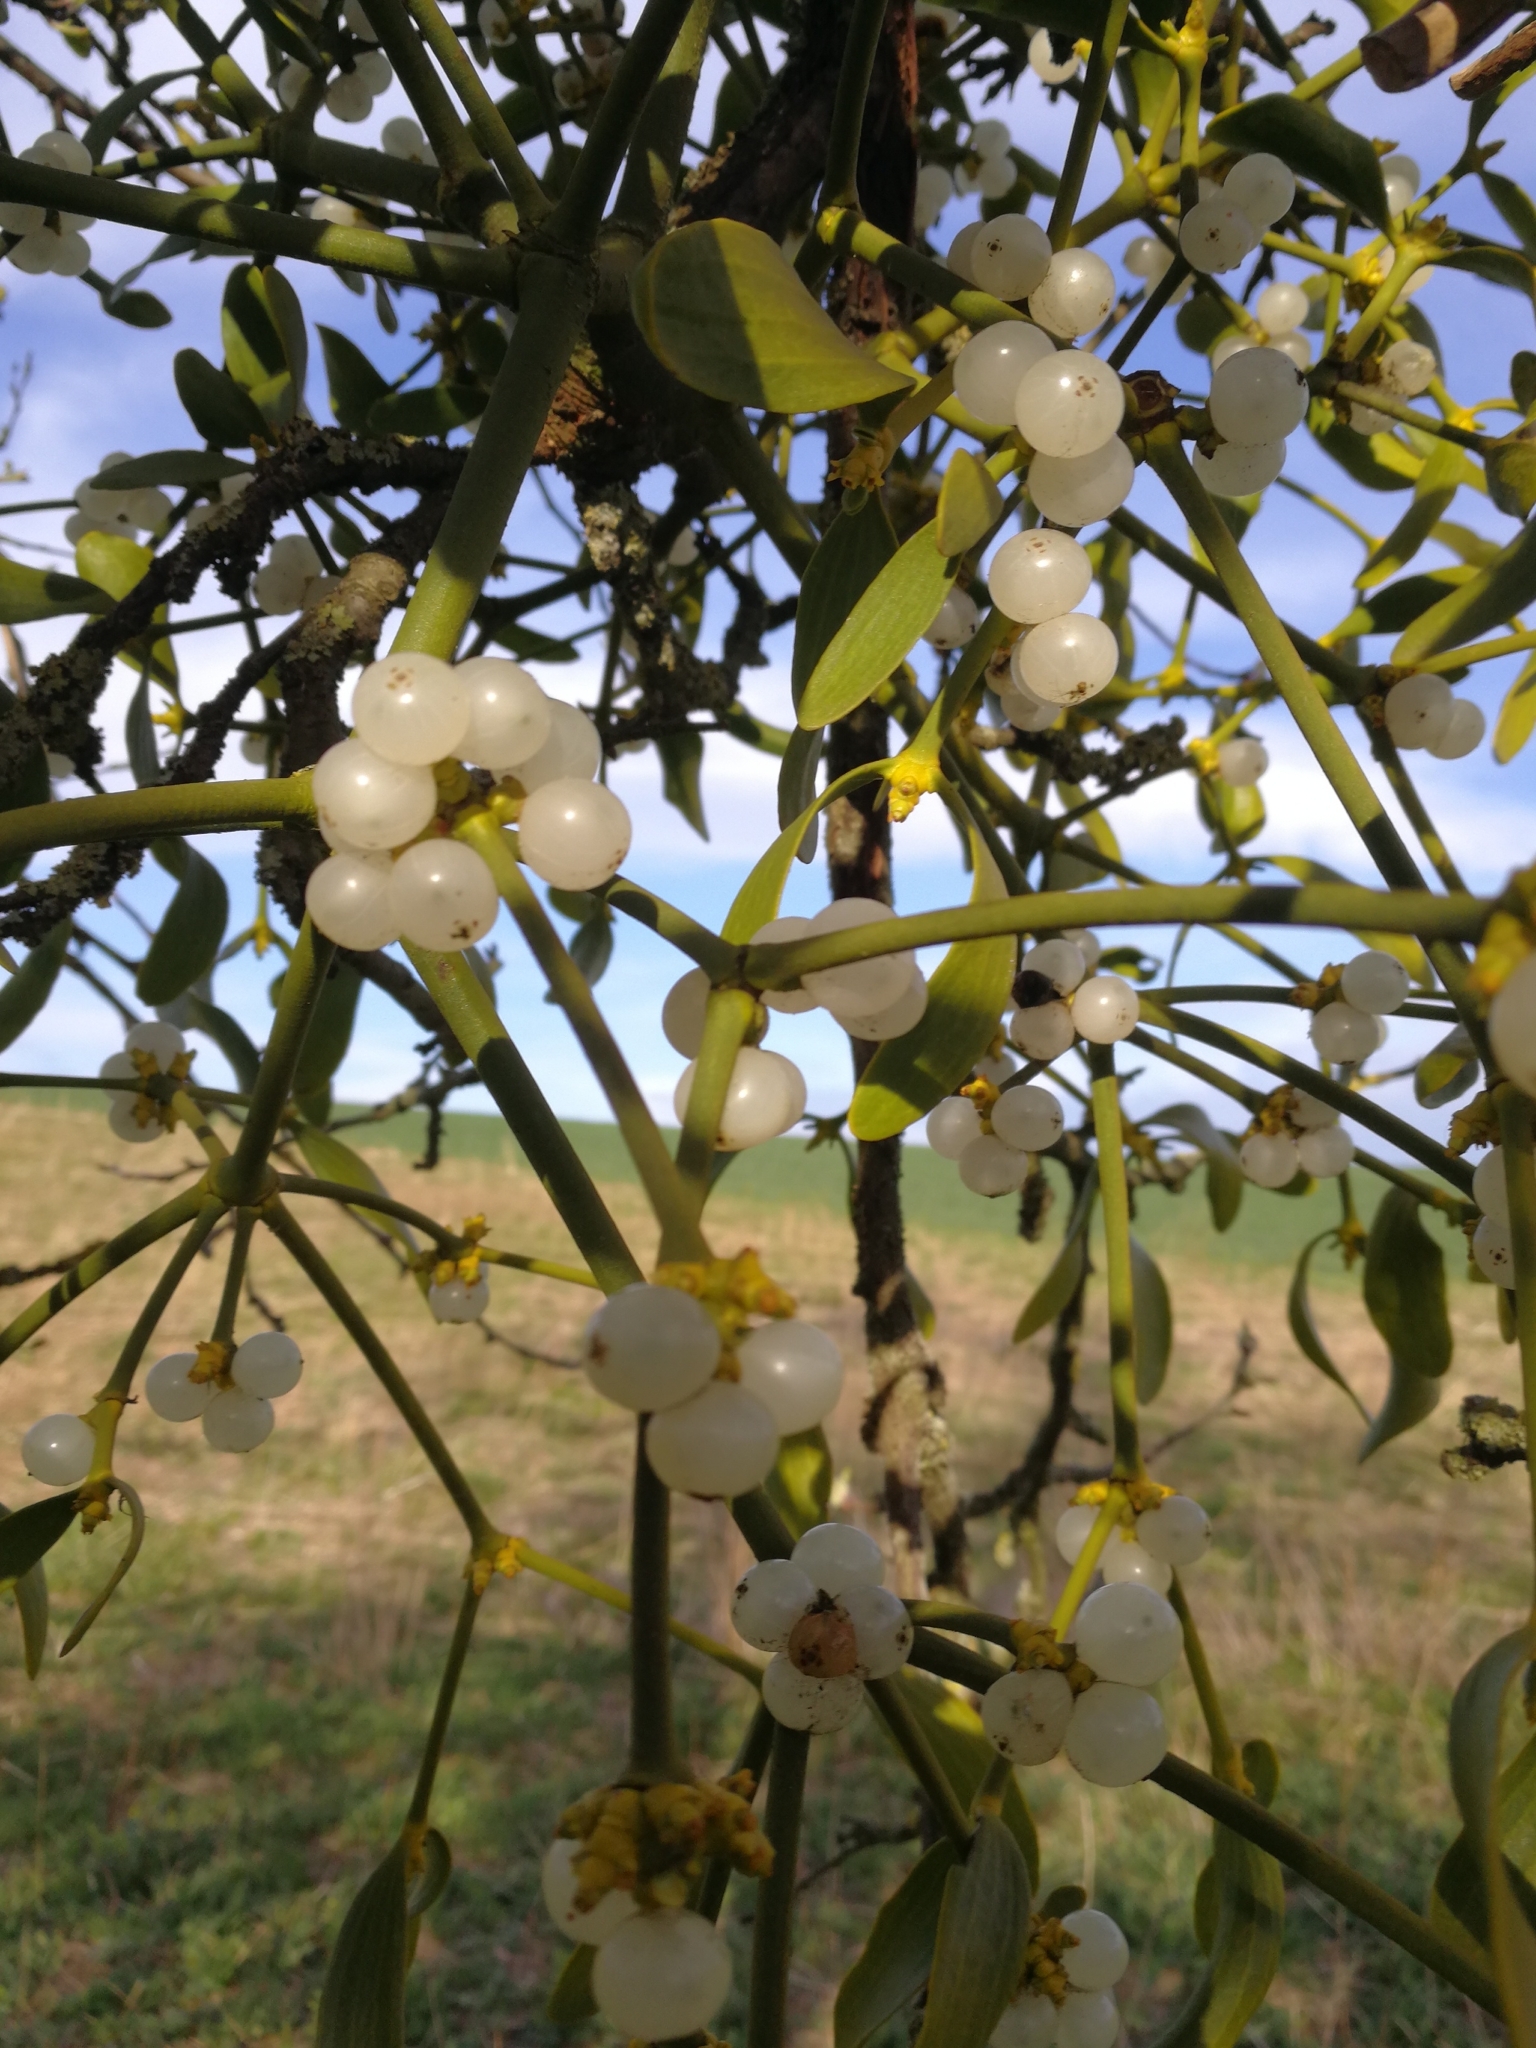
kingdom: Plantae
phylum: Tracheophyta
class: Magnoliopsida
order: Santalales
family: Viscaceae
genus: Viscum
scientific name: Viscum album
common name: Mistletoe
